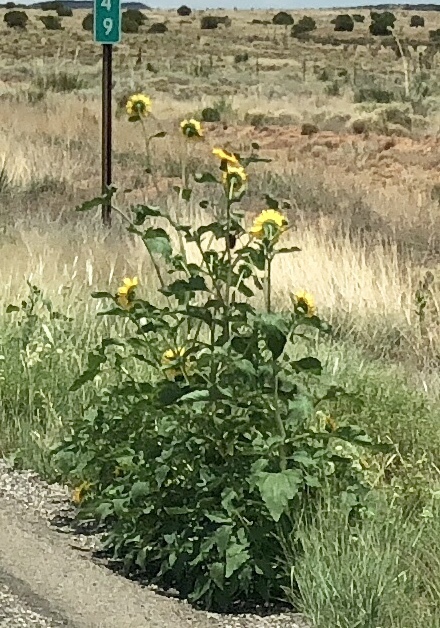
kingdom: Plantae
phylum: Tracheophyta
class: Magnoliopsida
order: Asterales
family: Asteraceae
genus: Helianthus
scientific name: Helianthus annuus
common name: Sunflower
